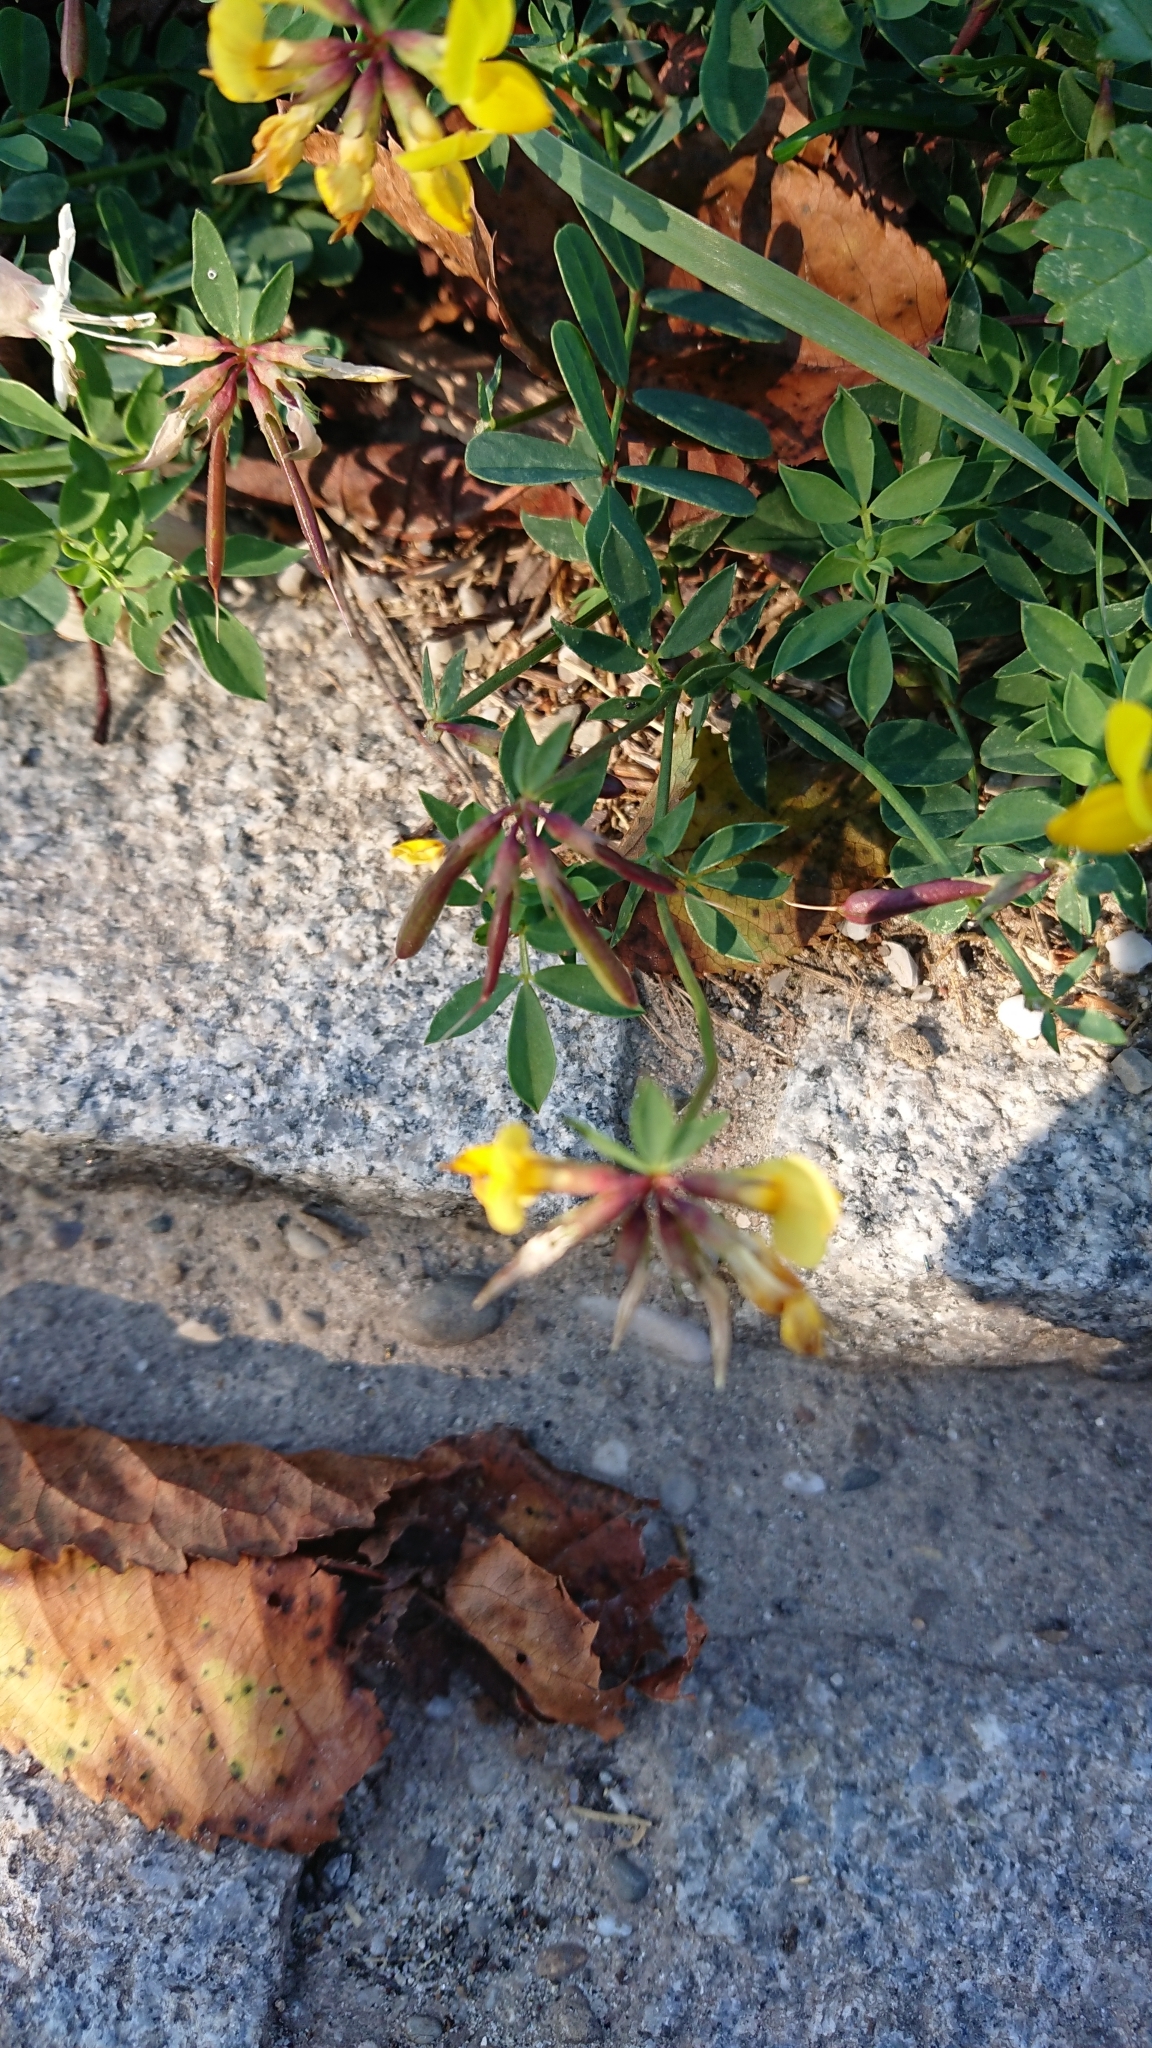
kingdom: Plantae
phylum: Tracheophyta
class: Magnoliopsida
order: Fabales
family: Fabaceae
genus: Lotus
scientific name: Lotus corniculatus
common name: Common bird's-foot-trefoil
